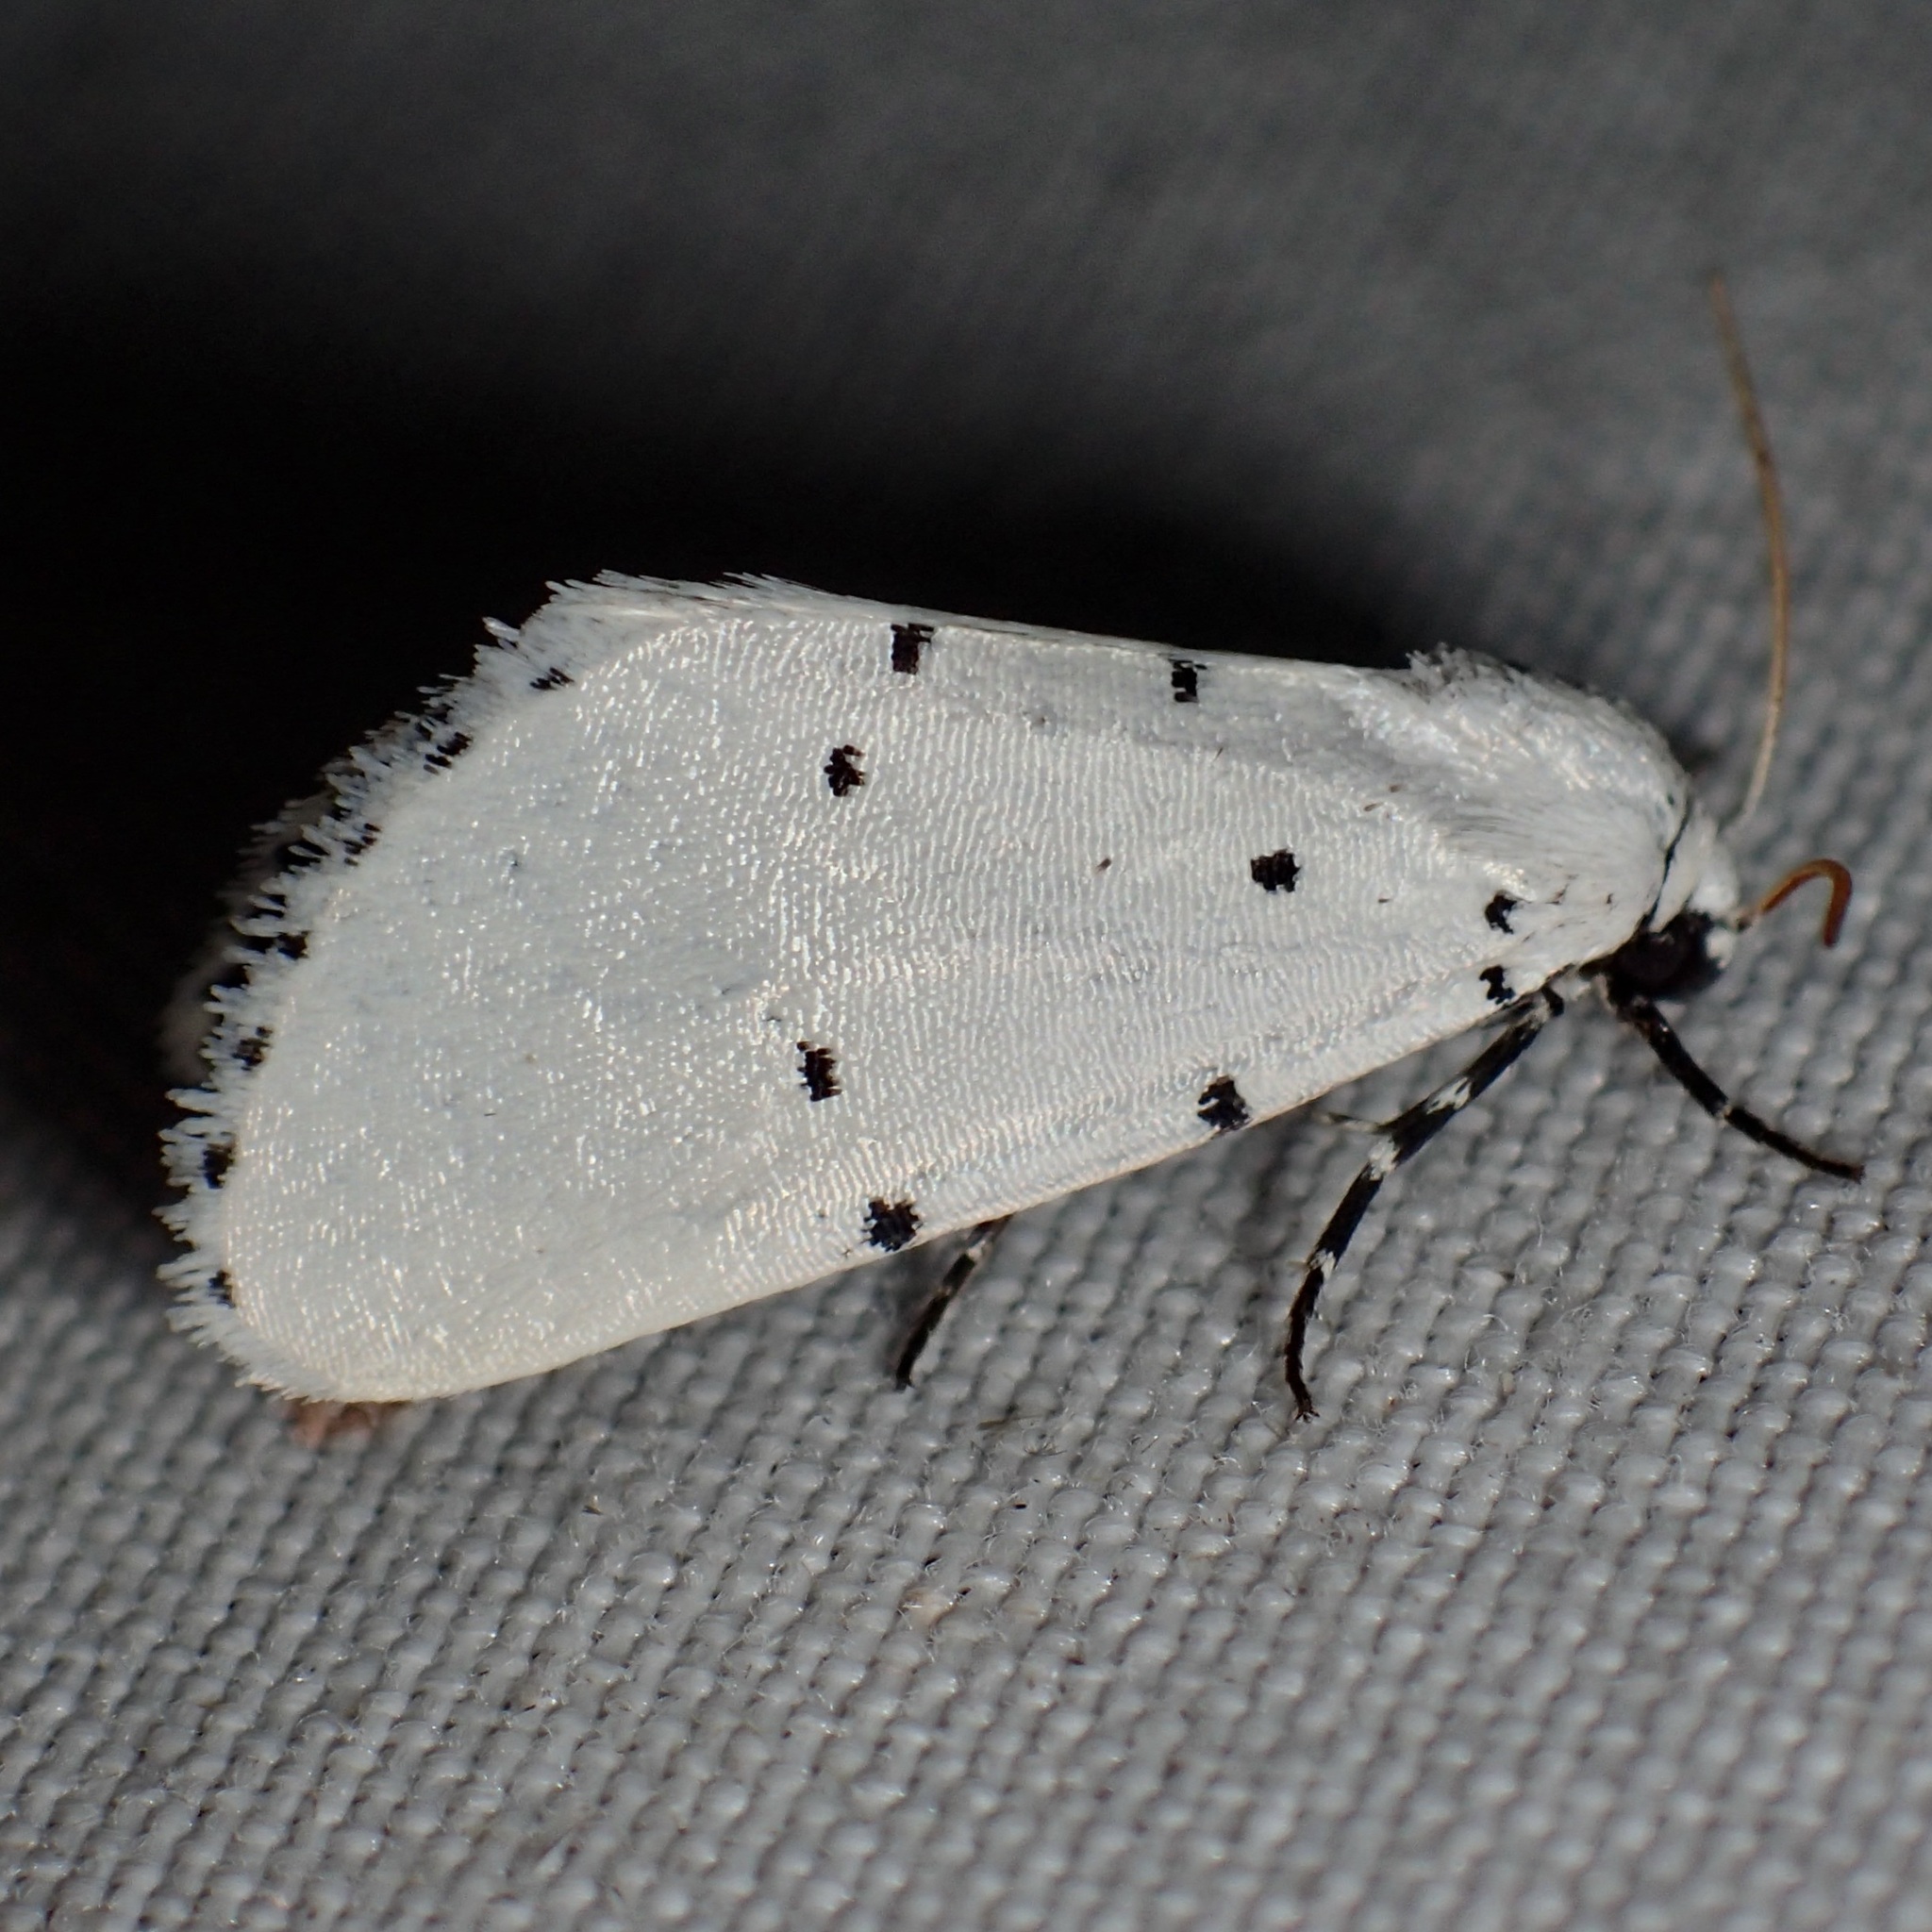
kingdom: Animalia
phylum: Arthropoda
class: Insecta
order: Lepidoptera
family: Noctuidae
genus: Grotella
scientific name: Grotella sampita
